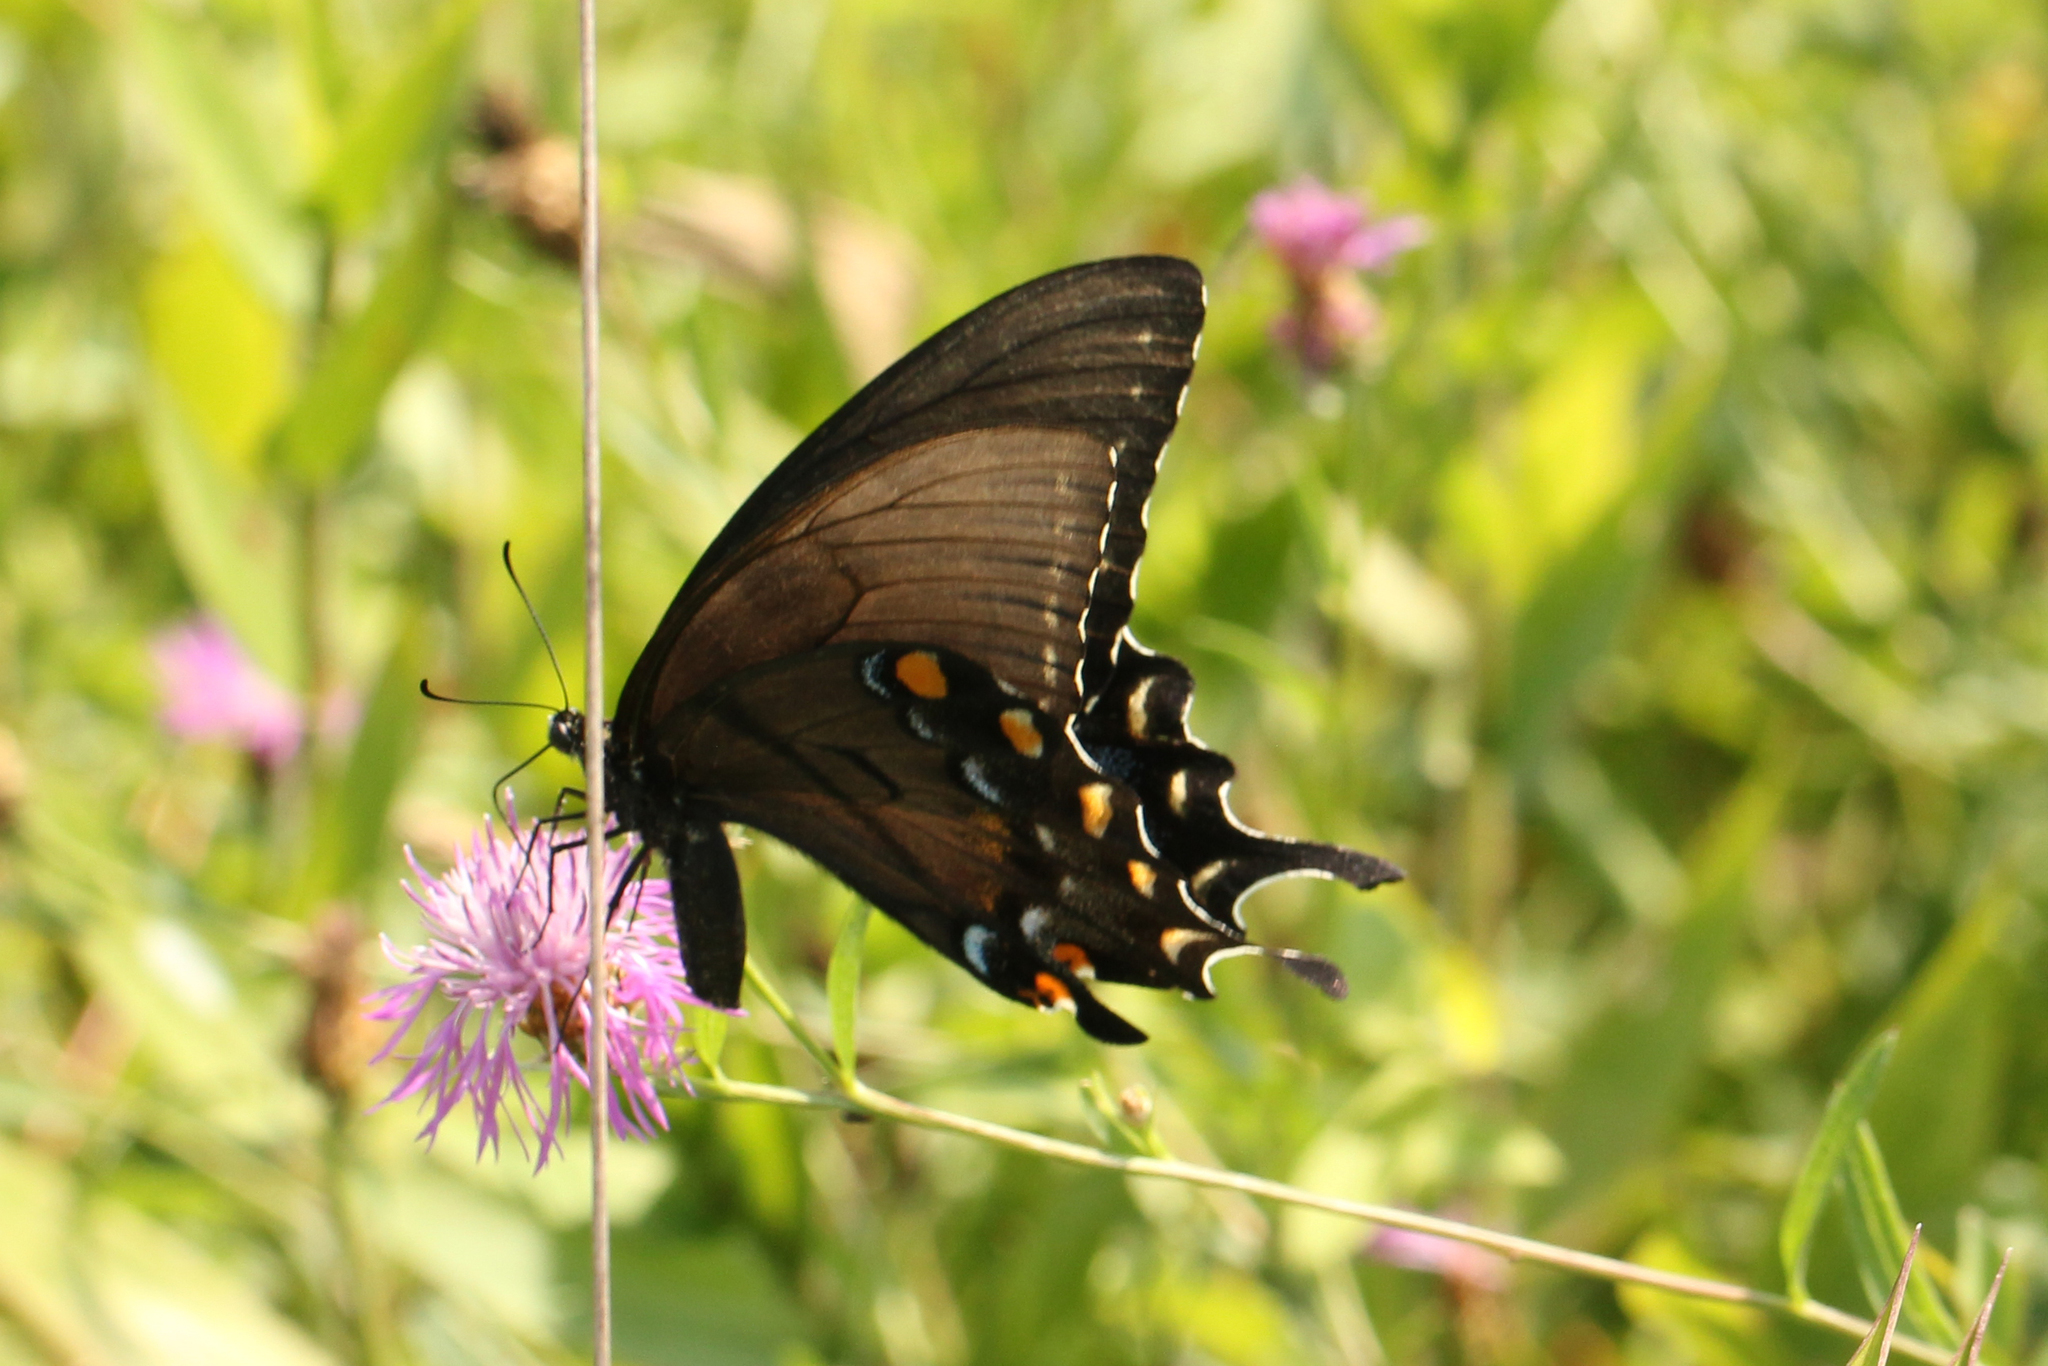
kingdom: Animalia
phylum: Arthropoda
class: Insecta
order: Lepidoptera
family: Papilionidae
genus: Papilio
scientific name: Papilio glaucus
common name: Tiger swallowtail
